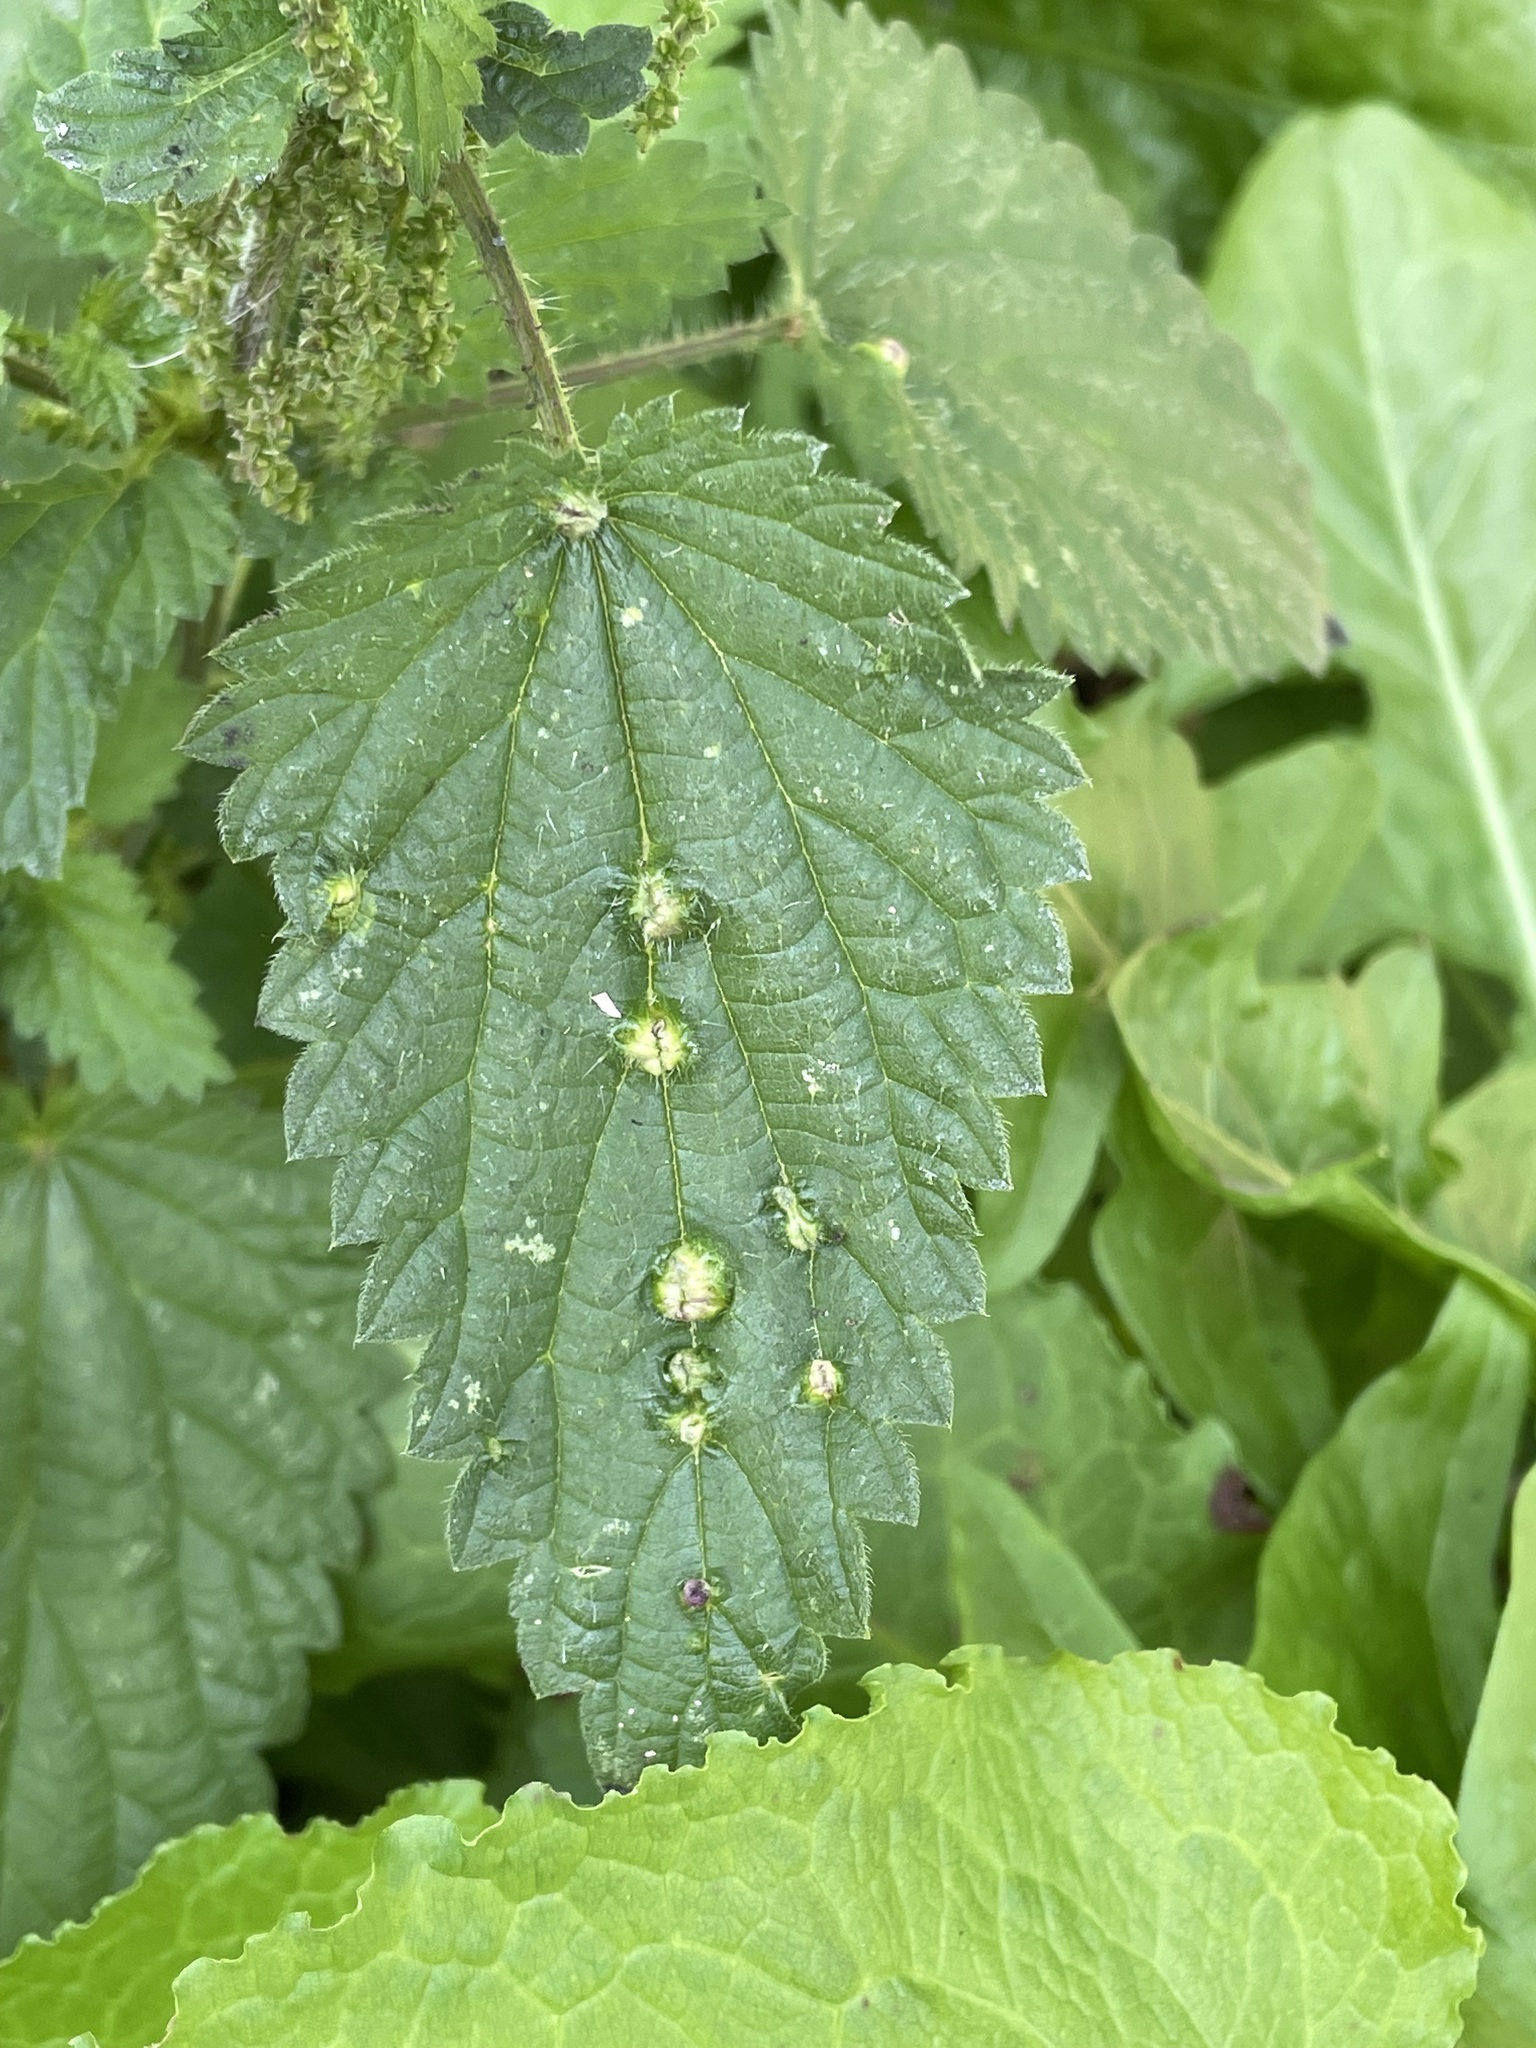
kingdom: Animalia
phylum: Arthropoda
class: Insecta
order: Diptera
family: Cecidomyiidae
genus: Dasineura
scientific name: Dasineura urticae
